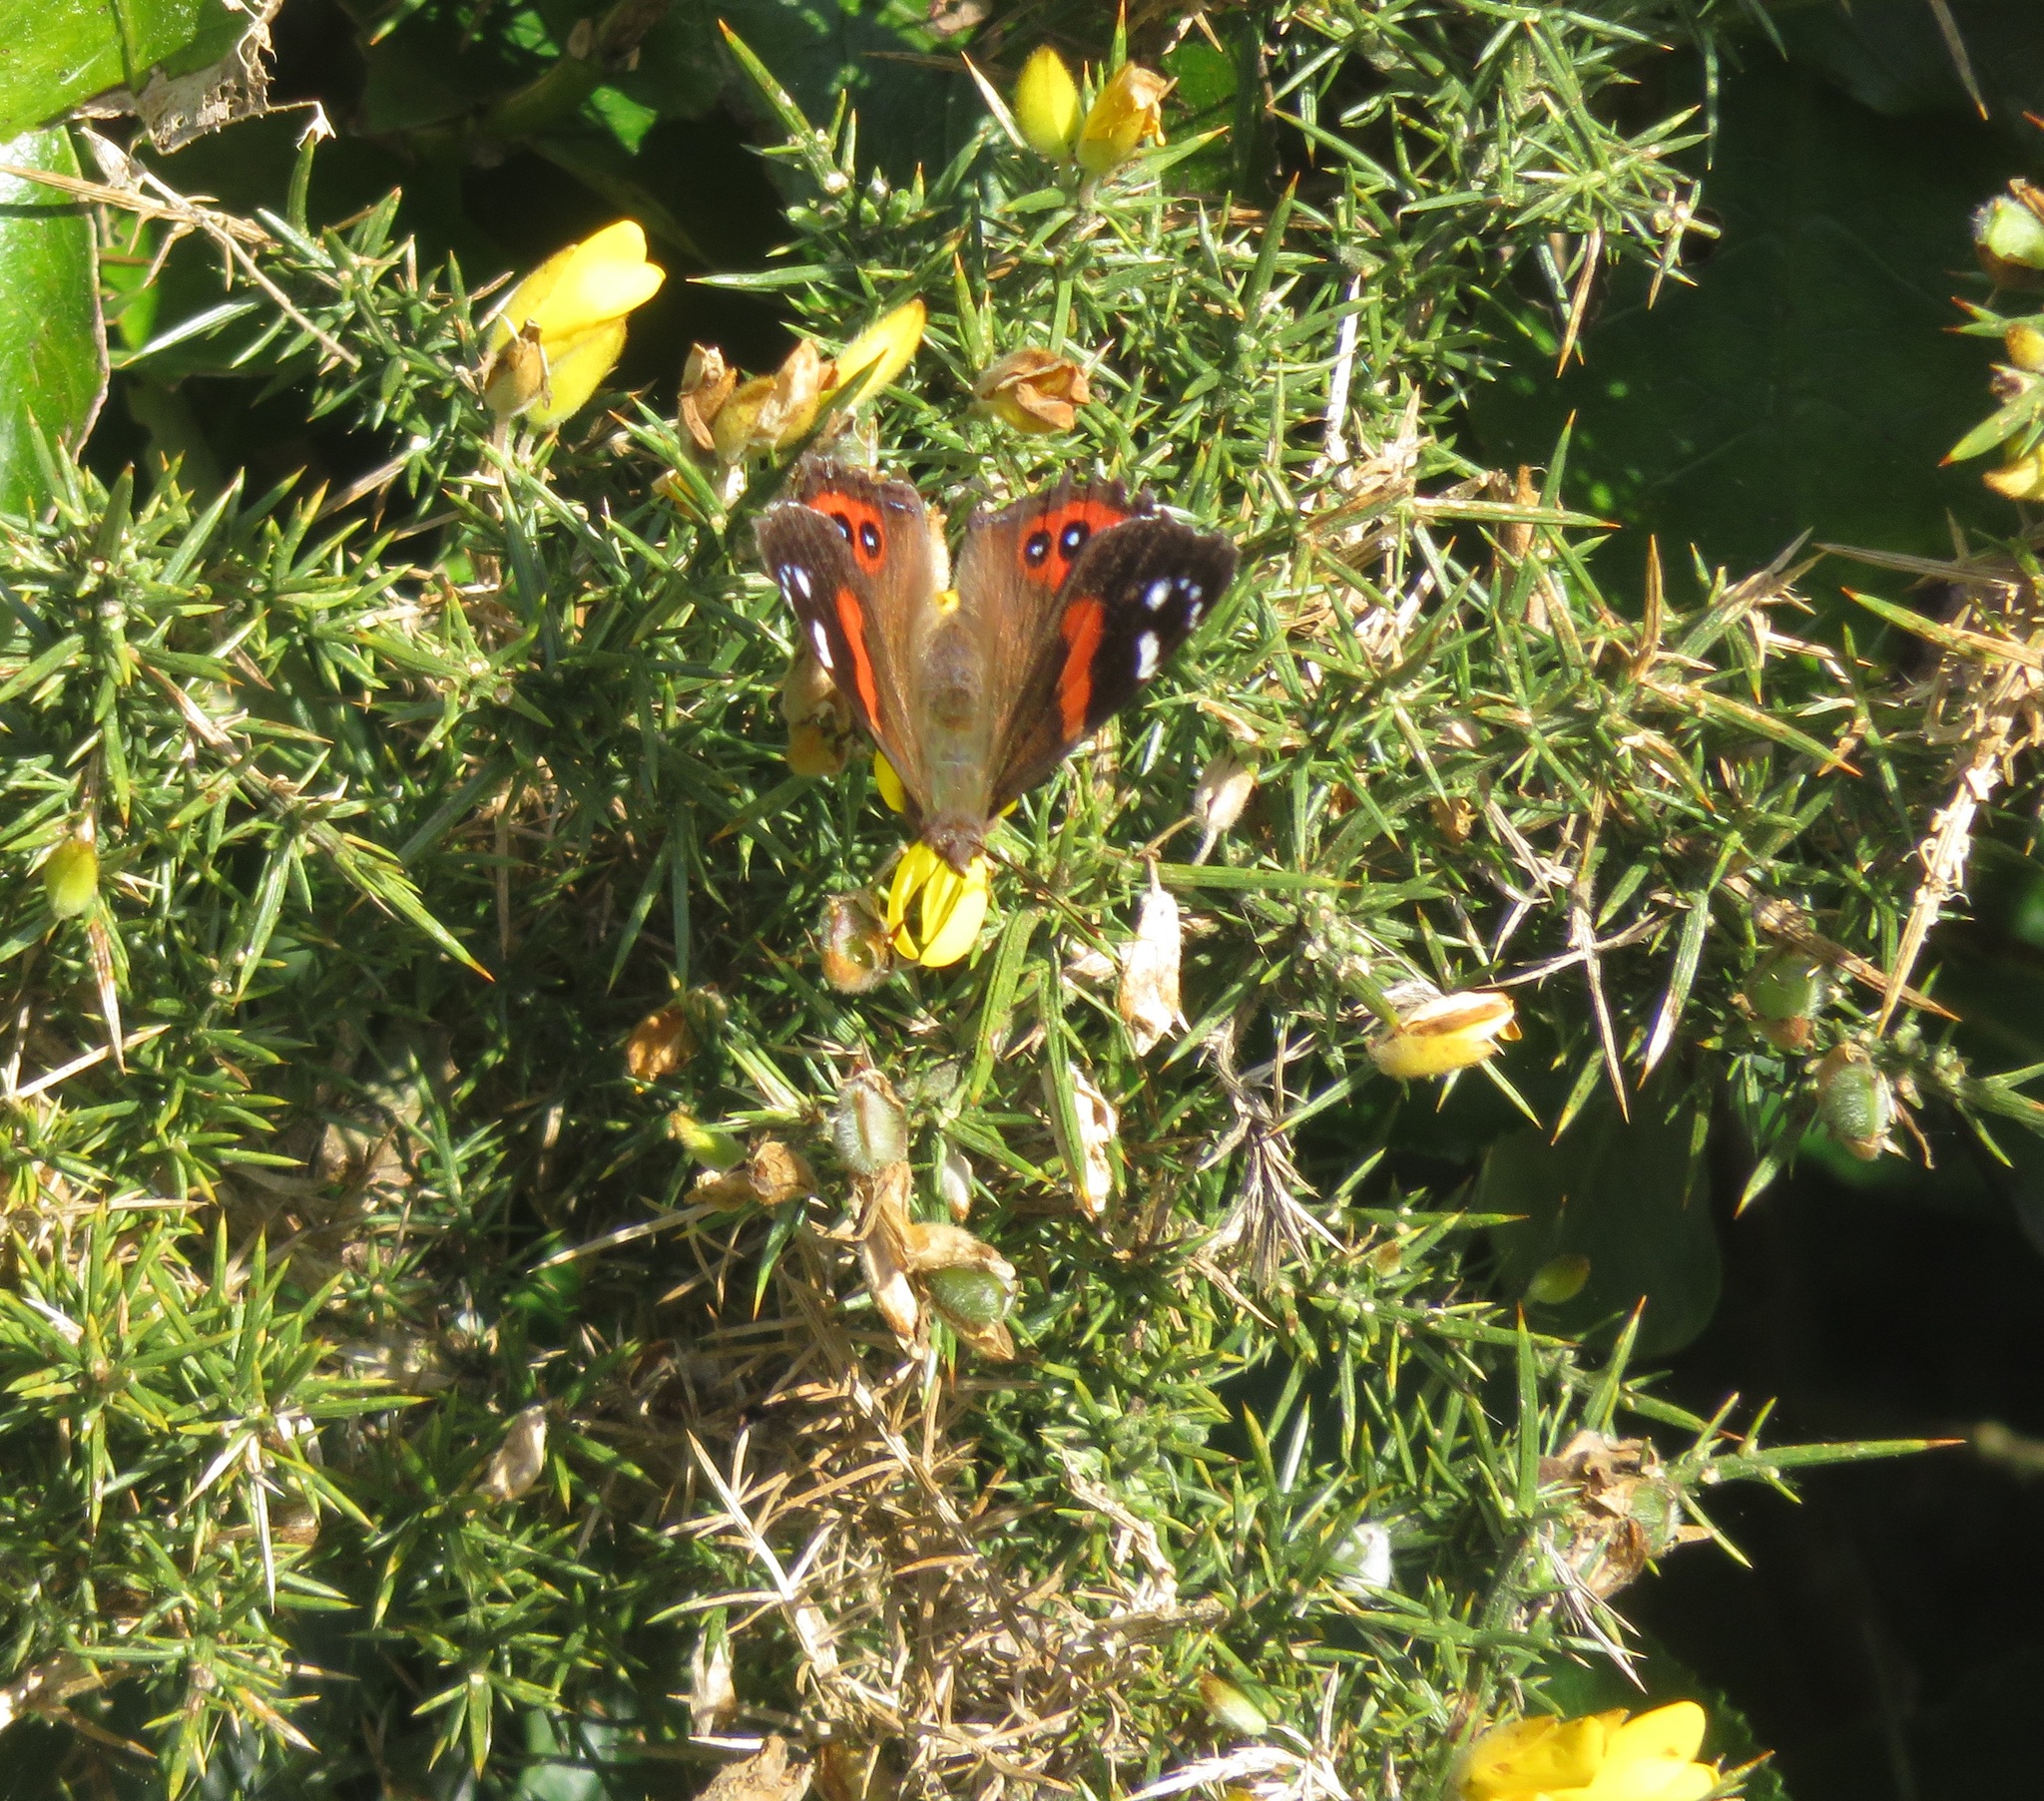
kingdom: Animalia
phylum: Arthropoda
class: Insecta
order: Lepidoptera
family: Nymphalidae
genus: Vanessa
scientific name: Vanessa gonerilla
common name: New zealand red admiral
